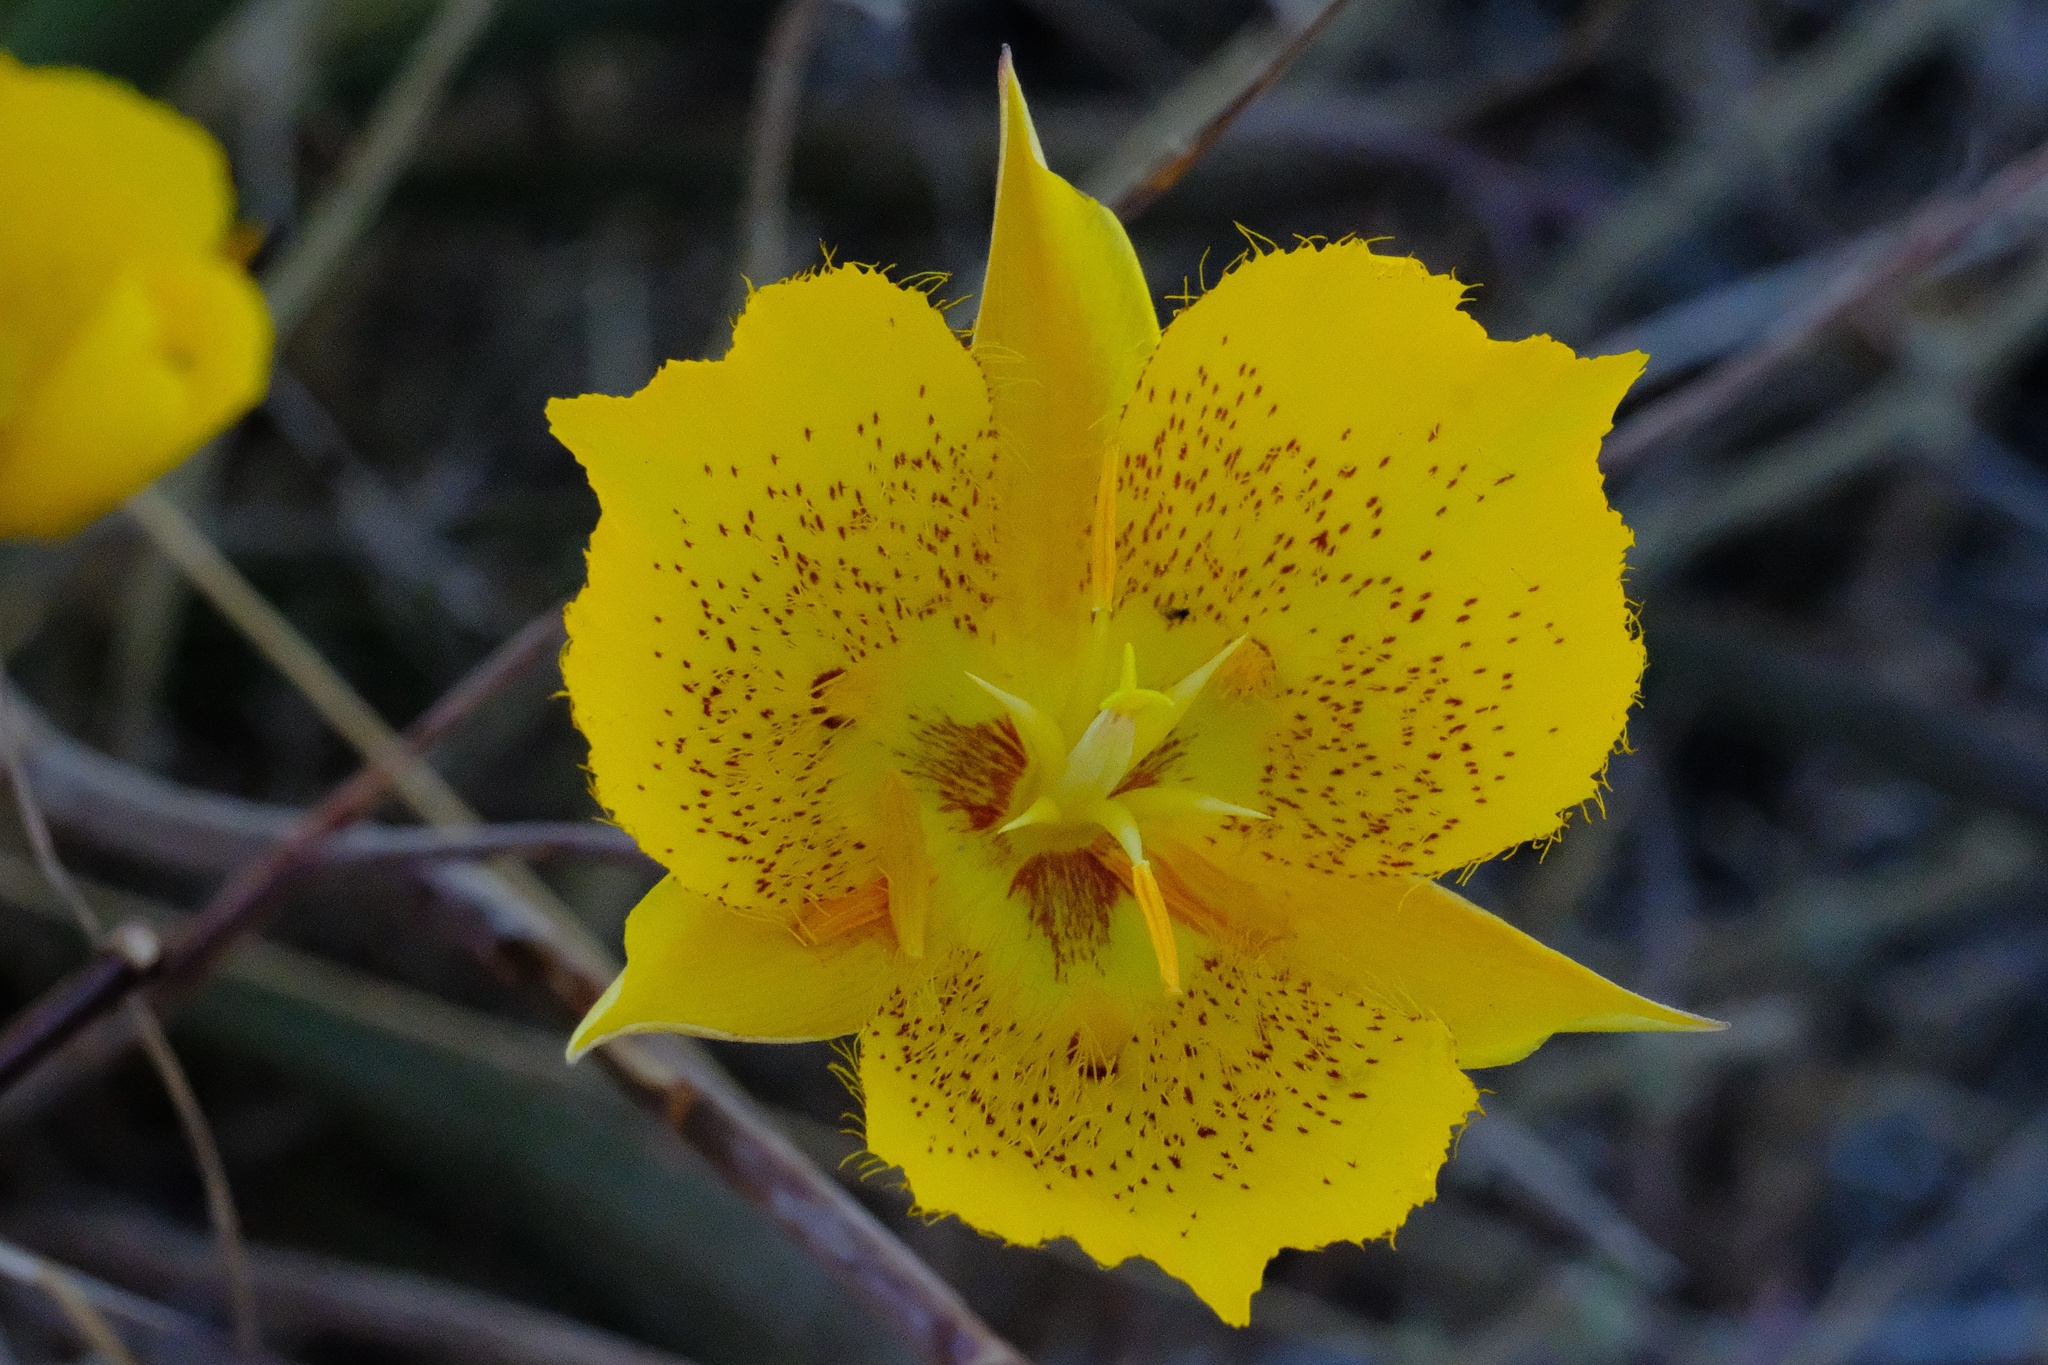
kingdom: Plantae
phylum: Tracheophyta
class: Liliopsida
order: Liliales
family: Liliaceae
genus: Calochortus
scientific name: Calochortus weedii
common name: Weed's mariposa-lily
